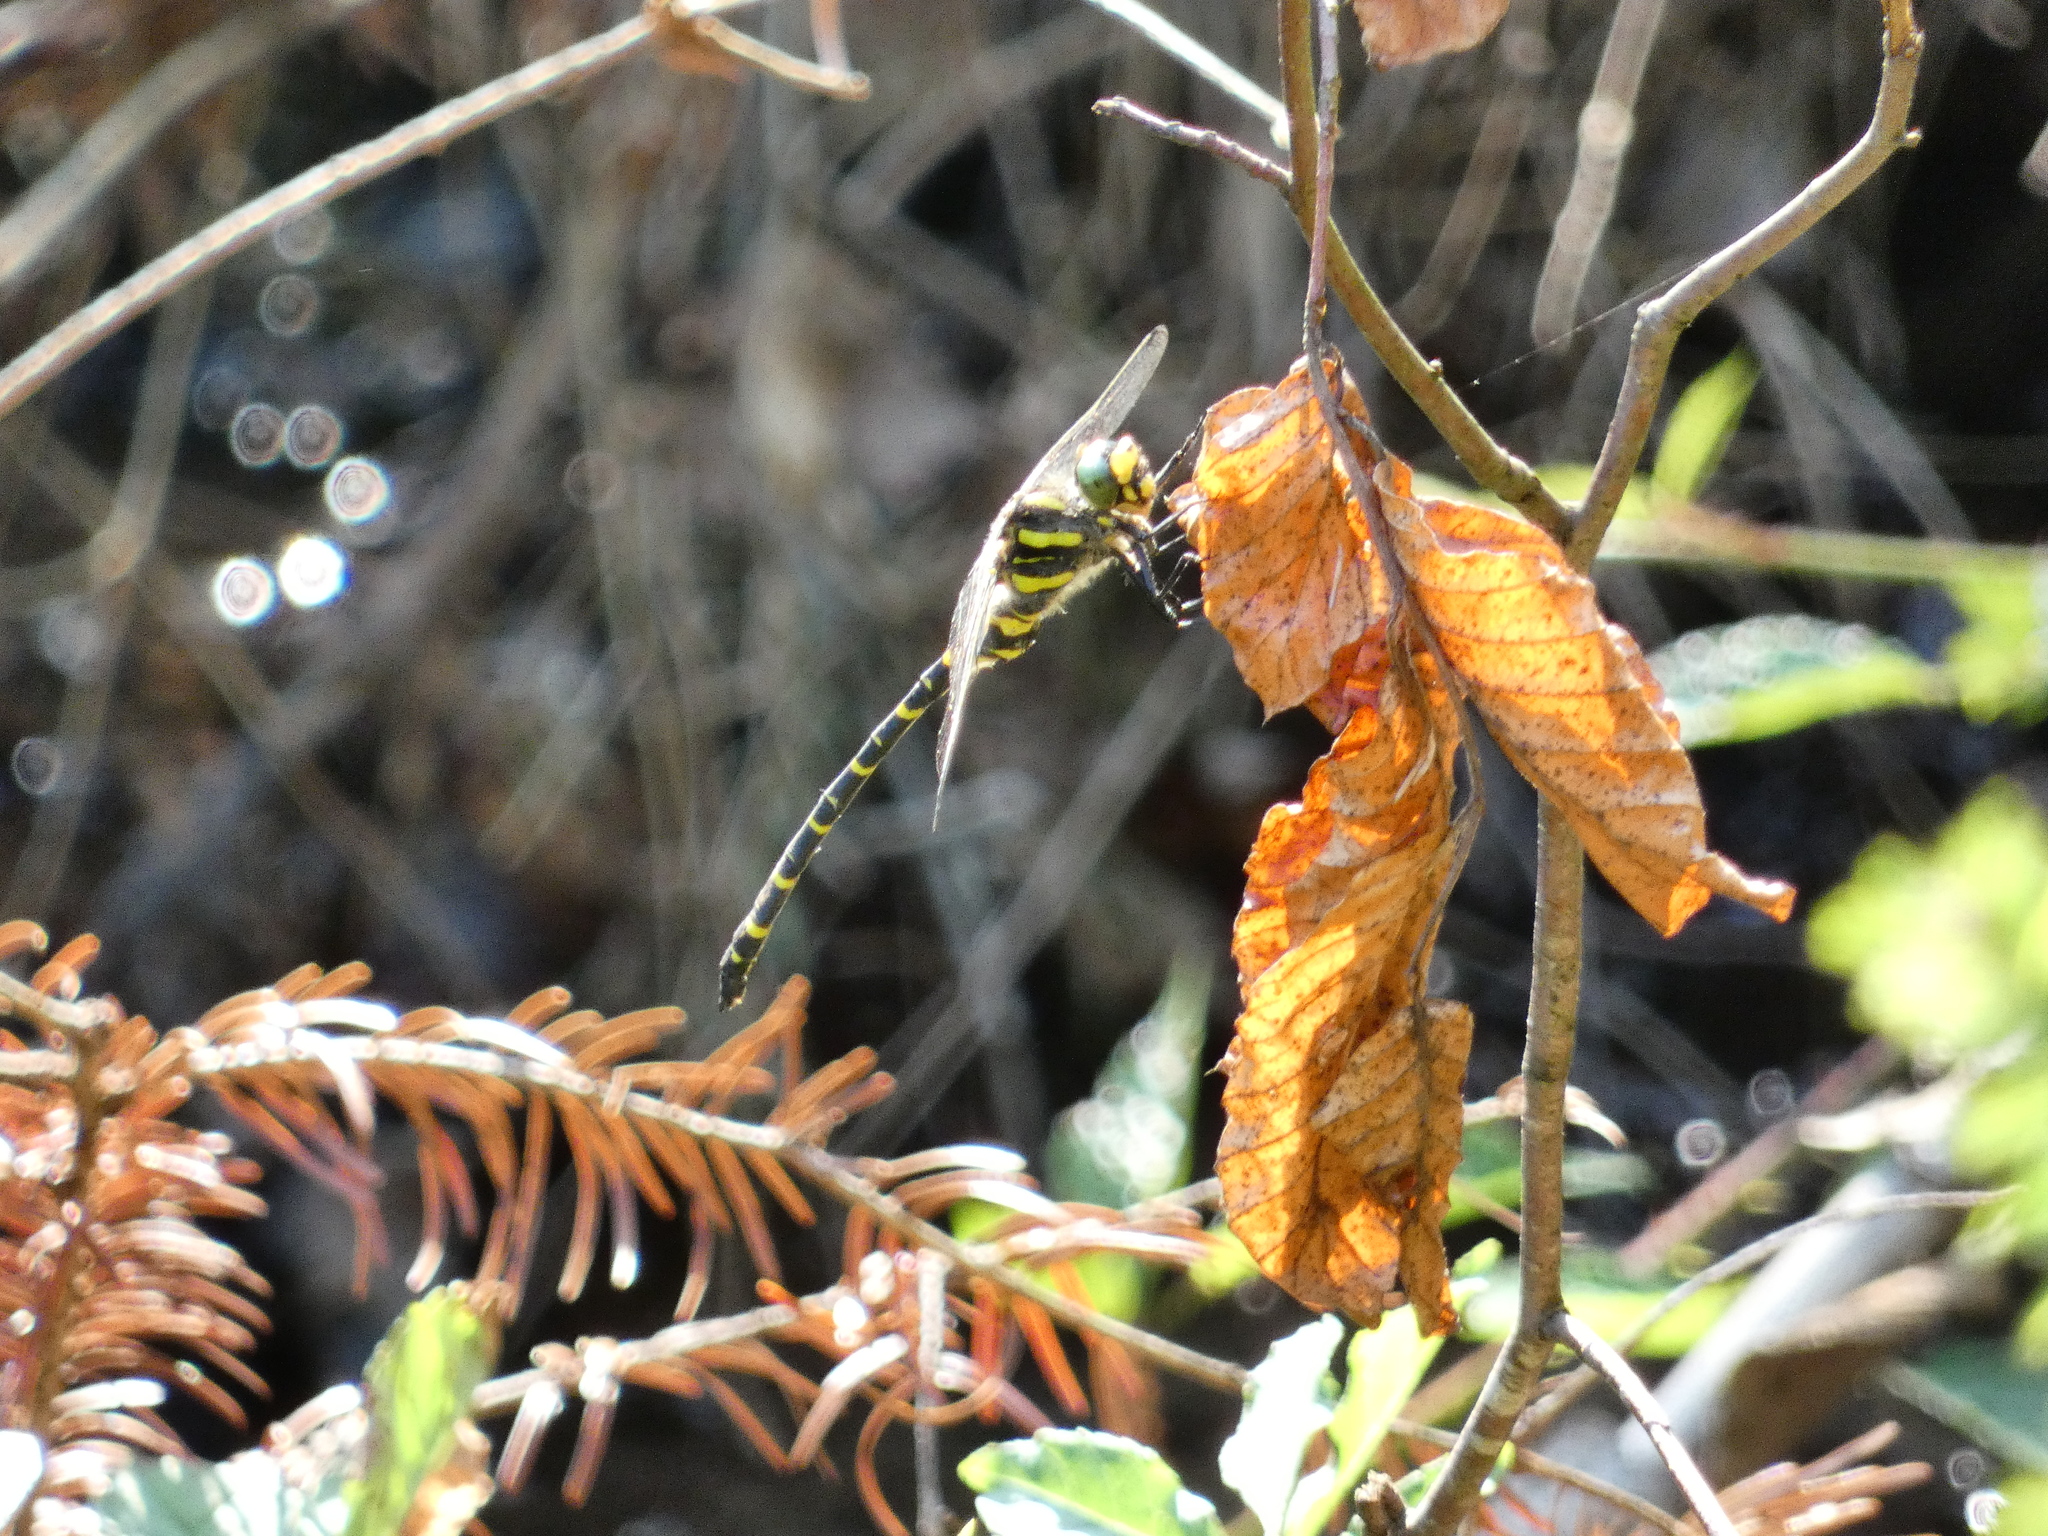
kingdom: Animalia
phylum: Arthropoda
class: Insecta
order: Odonata
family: Cordulegastridae
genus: Cordulegaster
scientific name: Cordulegaster boltonii
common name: Golden-ringed dragonfly
